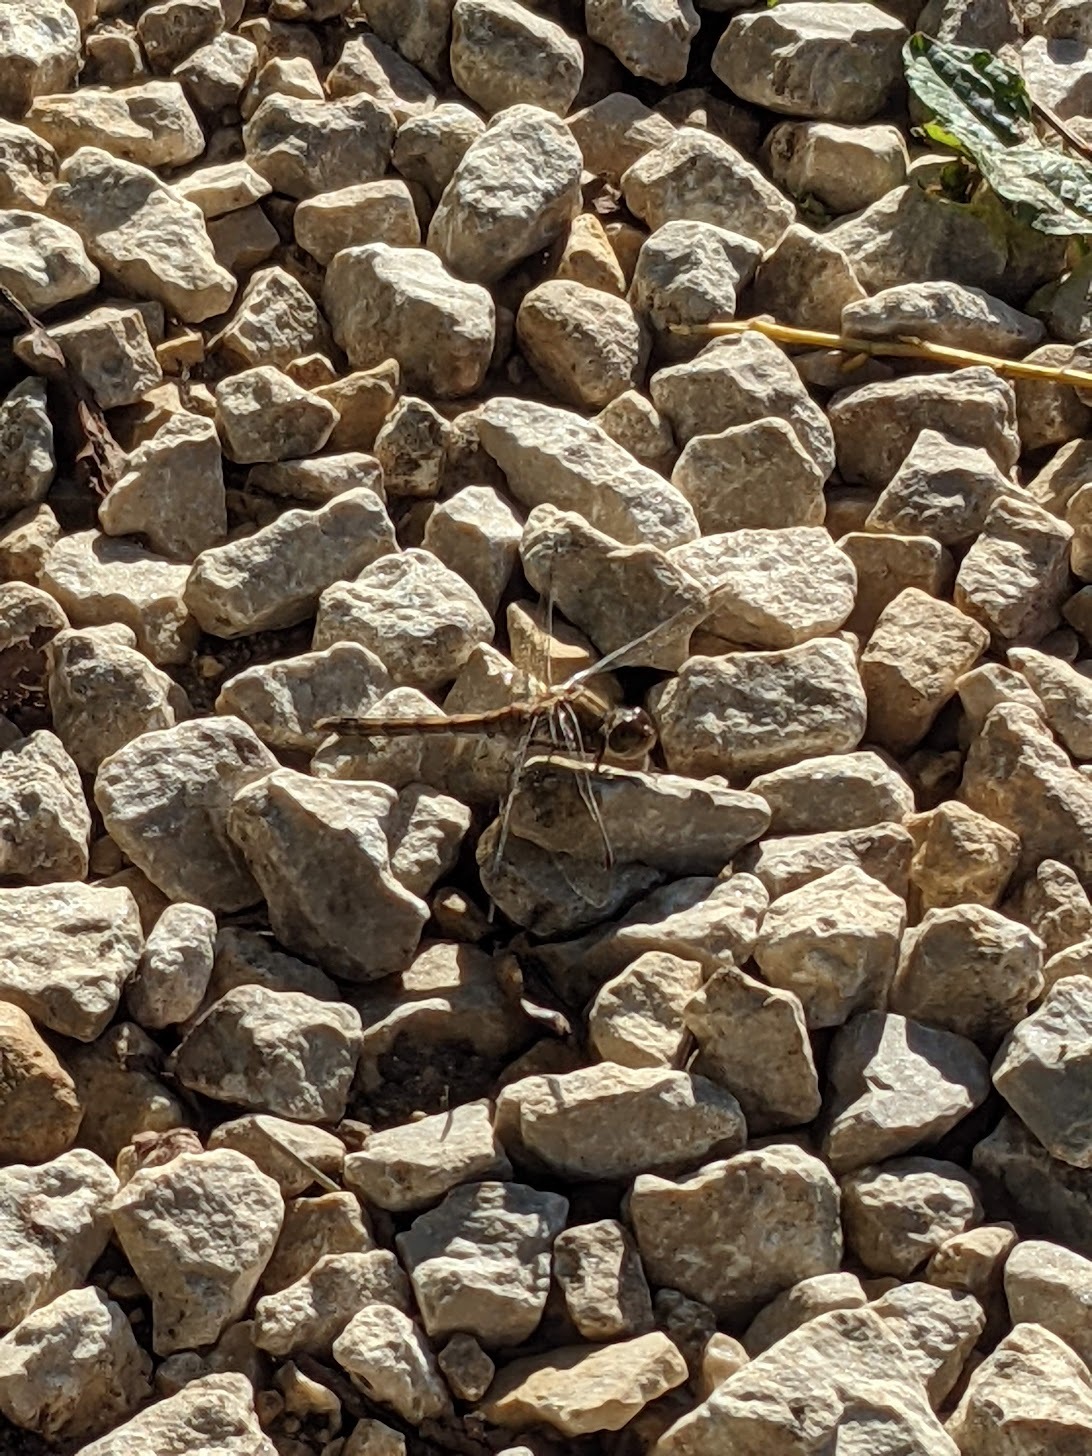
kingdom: Animalia
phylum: Arthropoda
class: Insecta
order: Odonata
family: Libellulidae
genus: Sympetrum
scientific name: Sympetrum striolatum
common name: Common darter
